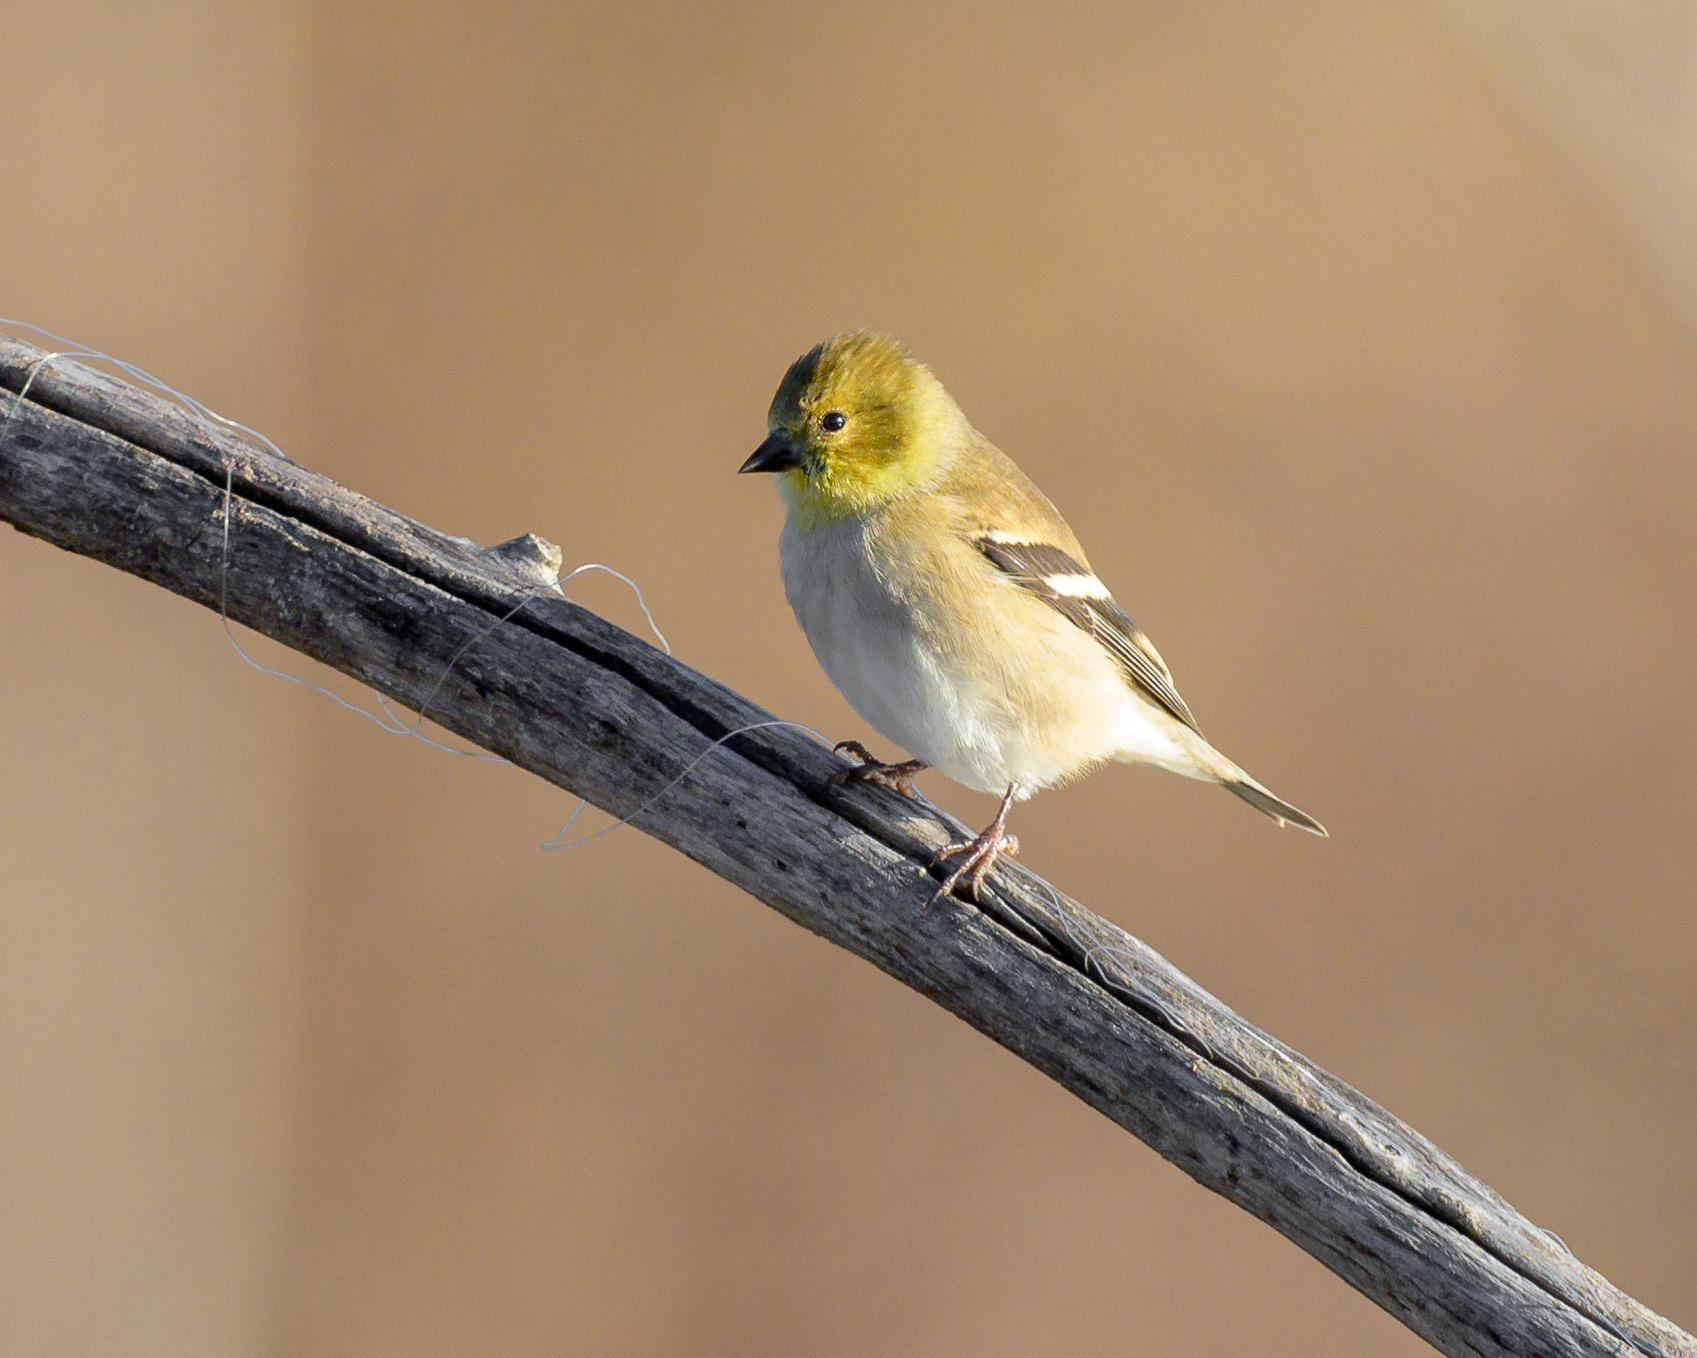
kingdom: Animalia
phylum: Chordata
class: Aves
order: Passeriformes
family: Fringillidae
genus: Spinus
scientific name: Spinus tristis
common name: American goldfinch
